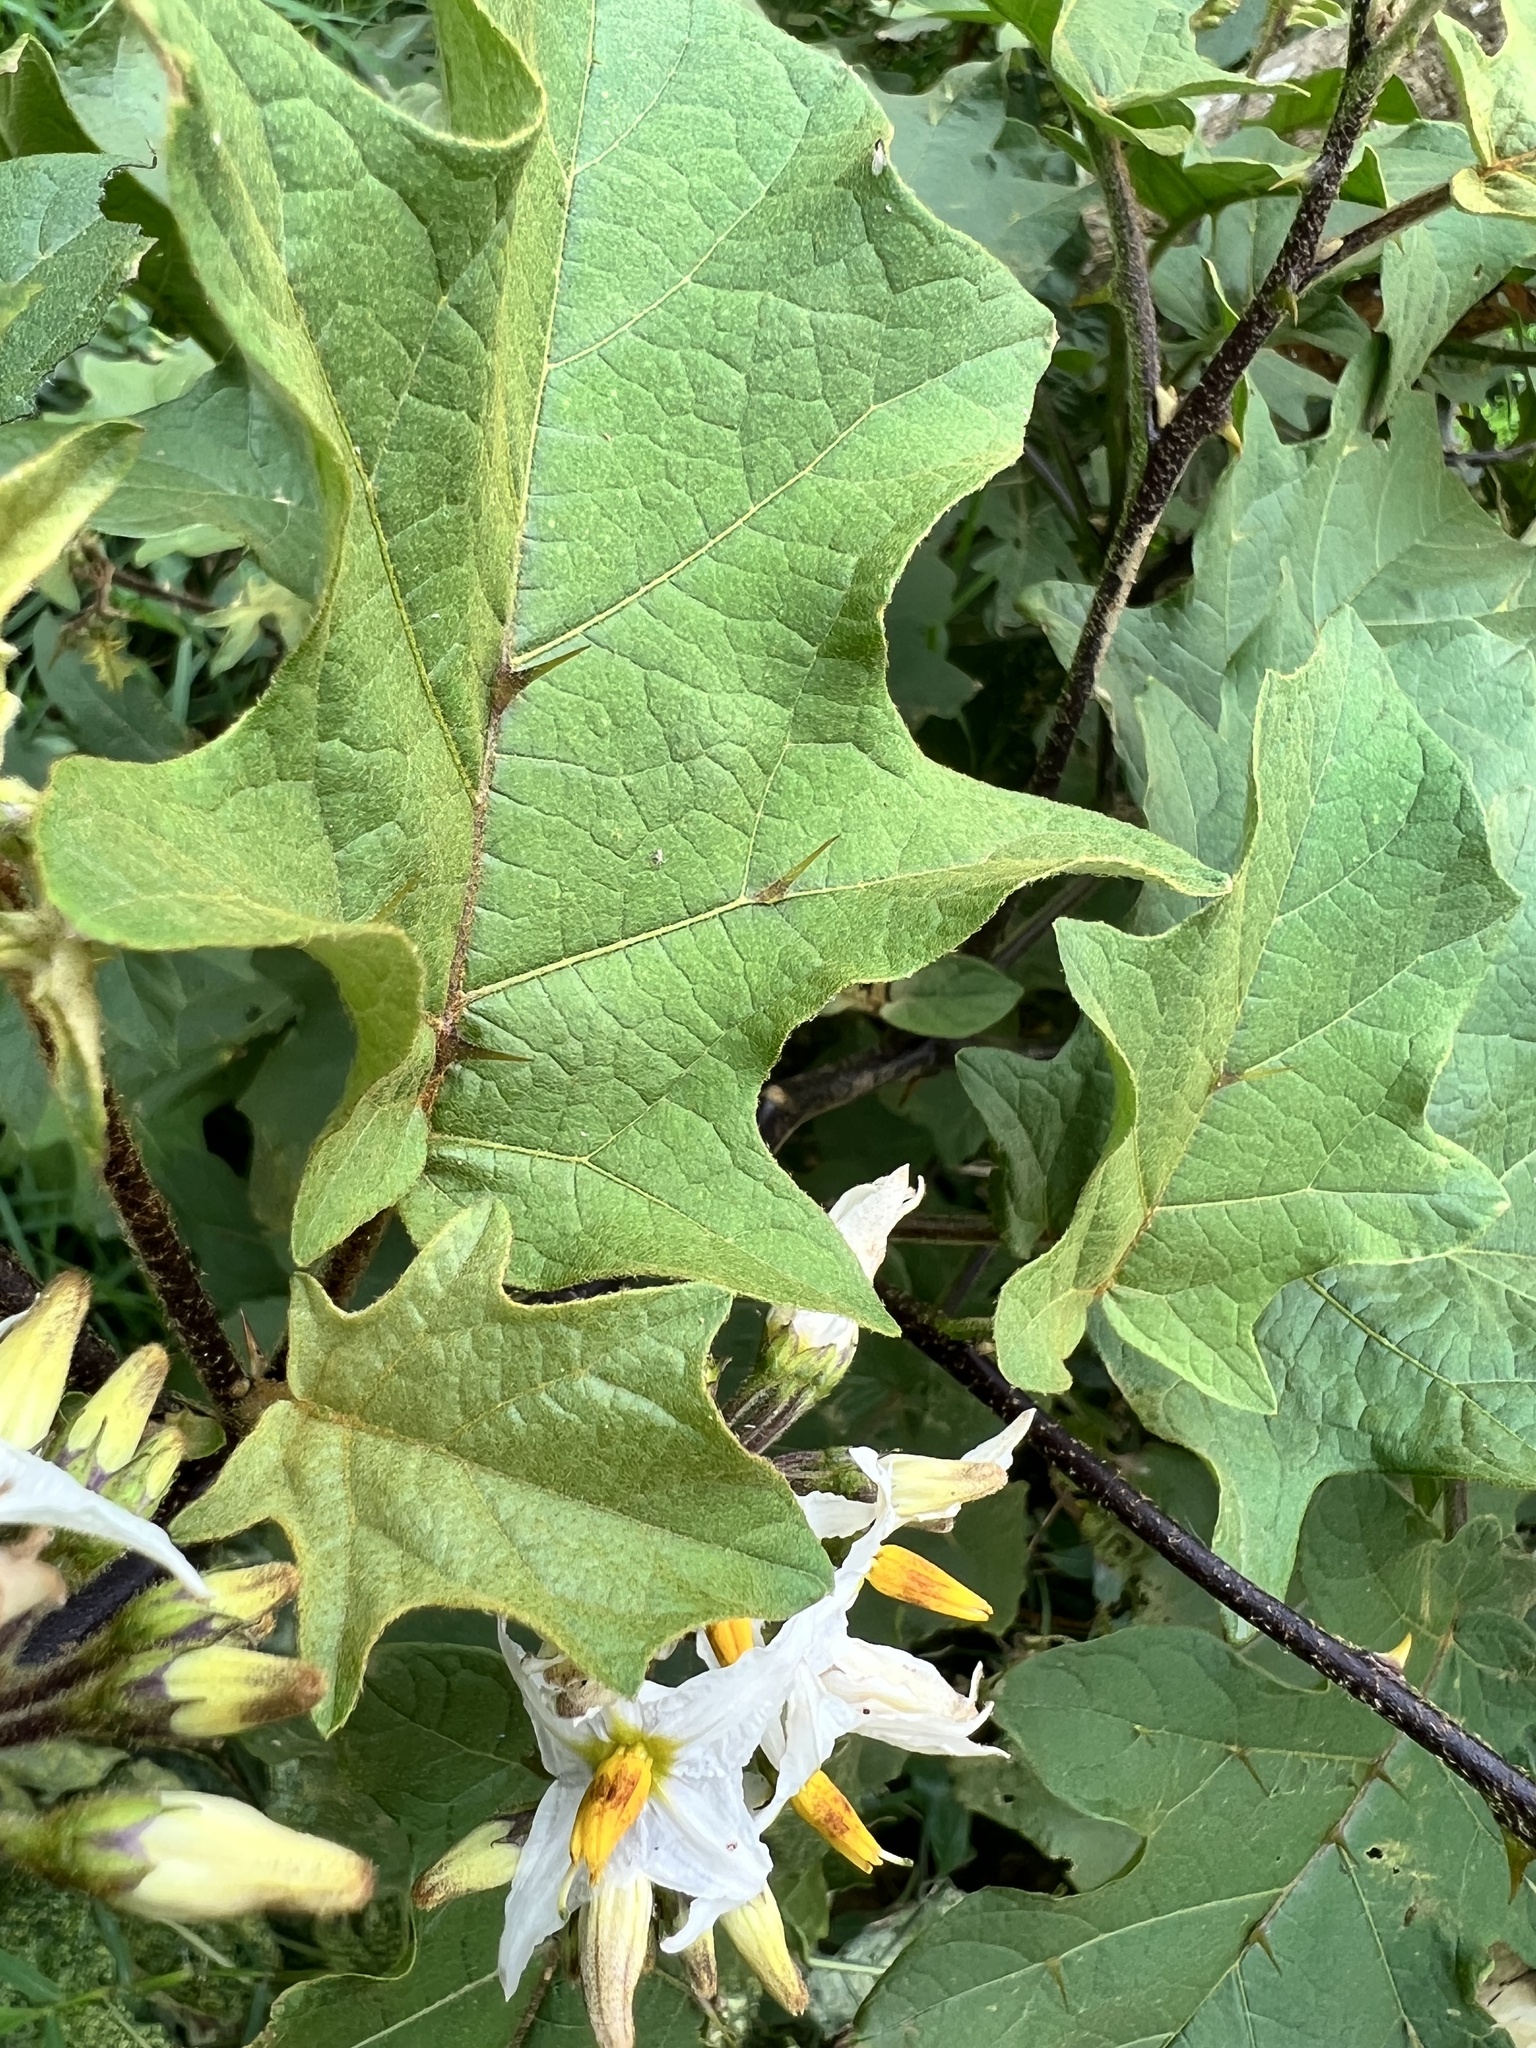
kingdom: Plantae
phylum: Tracheophyta
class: Magnoliopsida
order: Solanales
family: Solanaceae
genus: Solanum
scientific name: Solanum torvum
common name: Turkey berry
